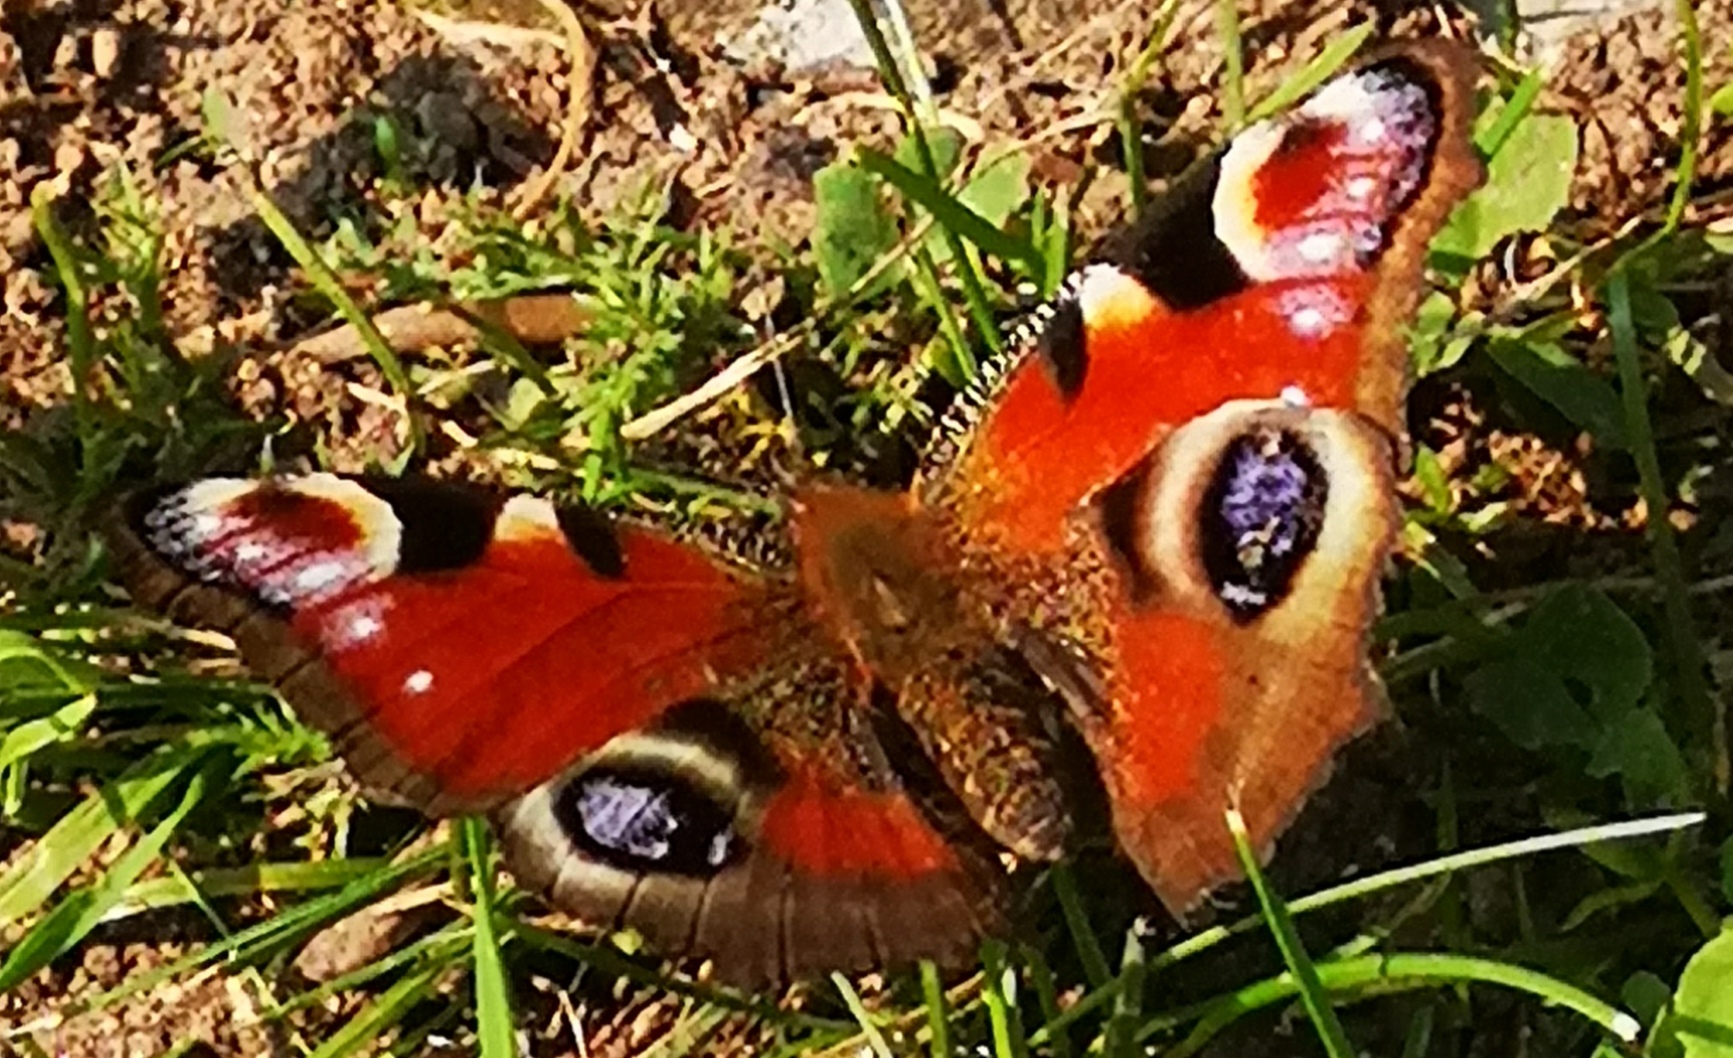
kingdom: Animalia
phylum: Arthropoda
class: Insecta
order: Lepidoptera
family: Nymphalidae
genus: Aglais
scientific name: Aglais io
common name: Peacock
